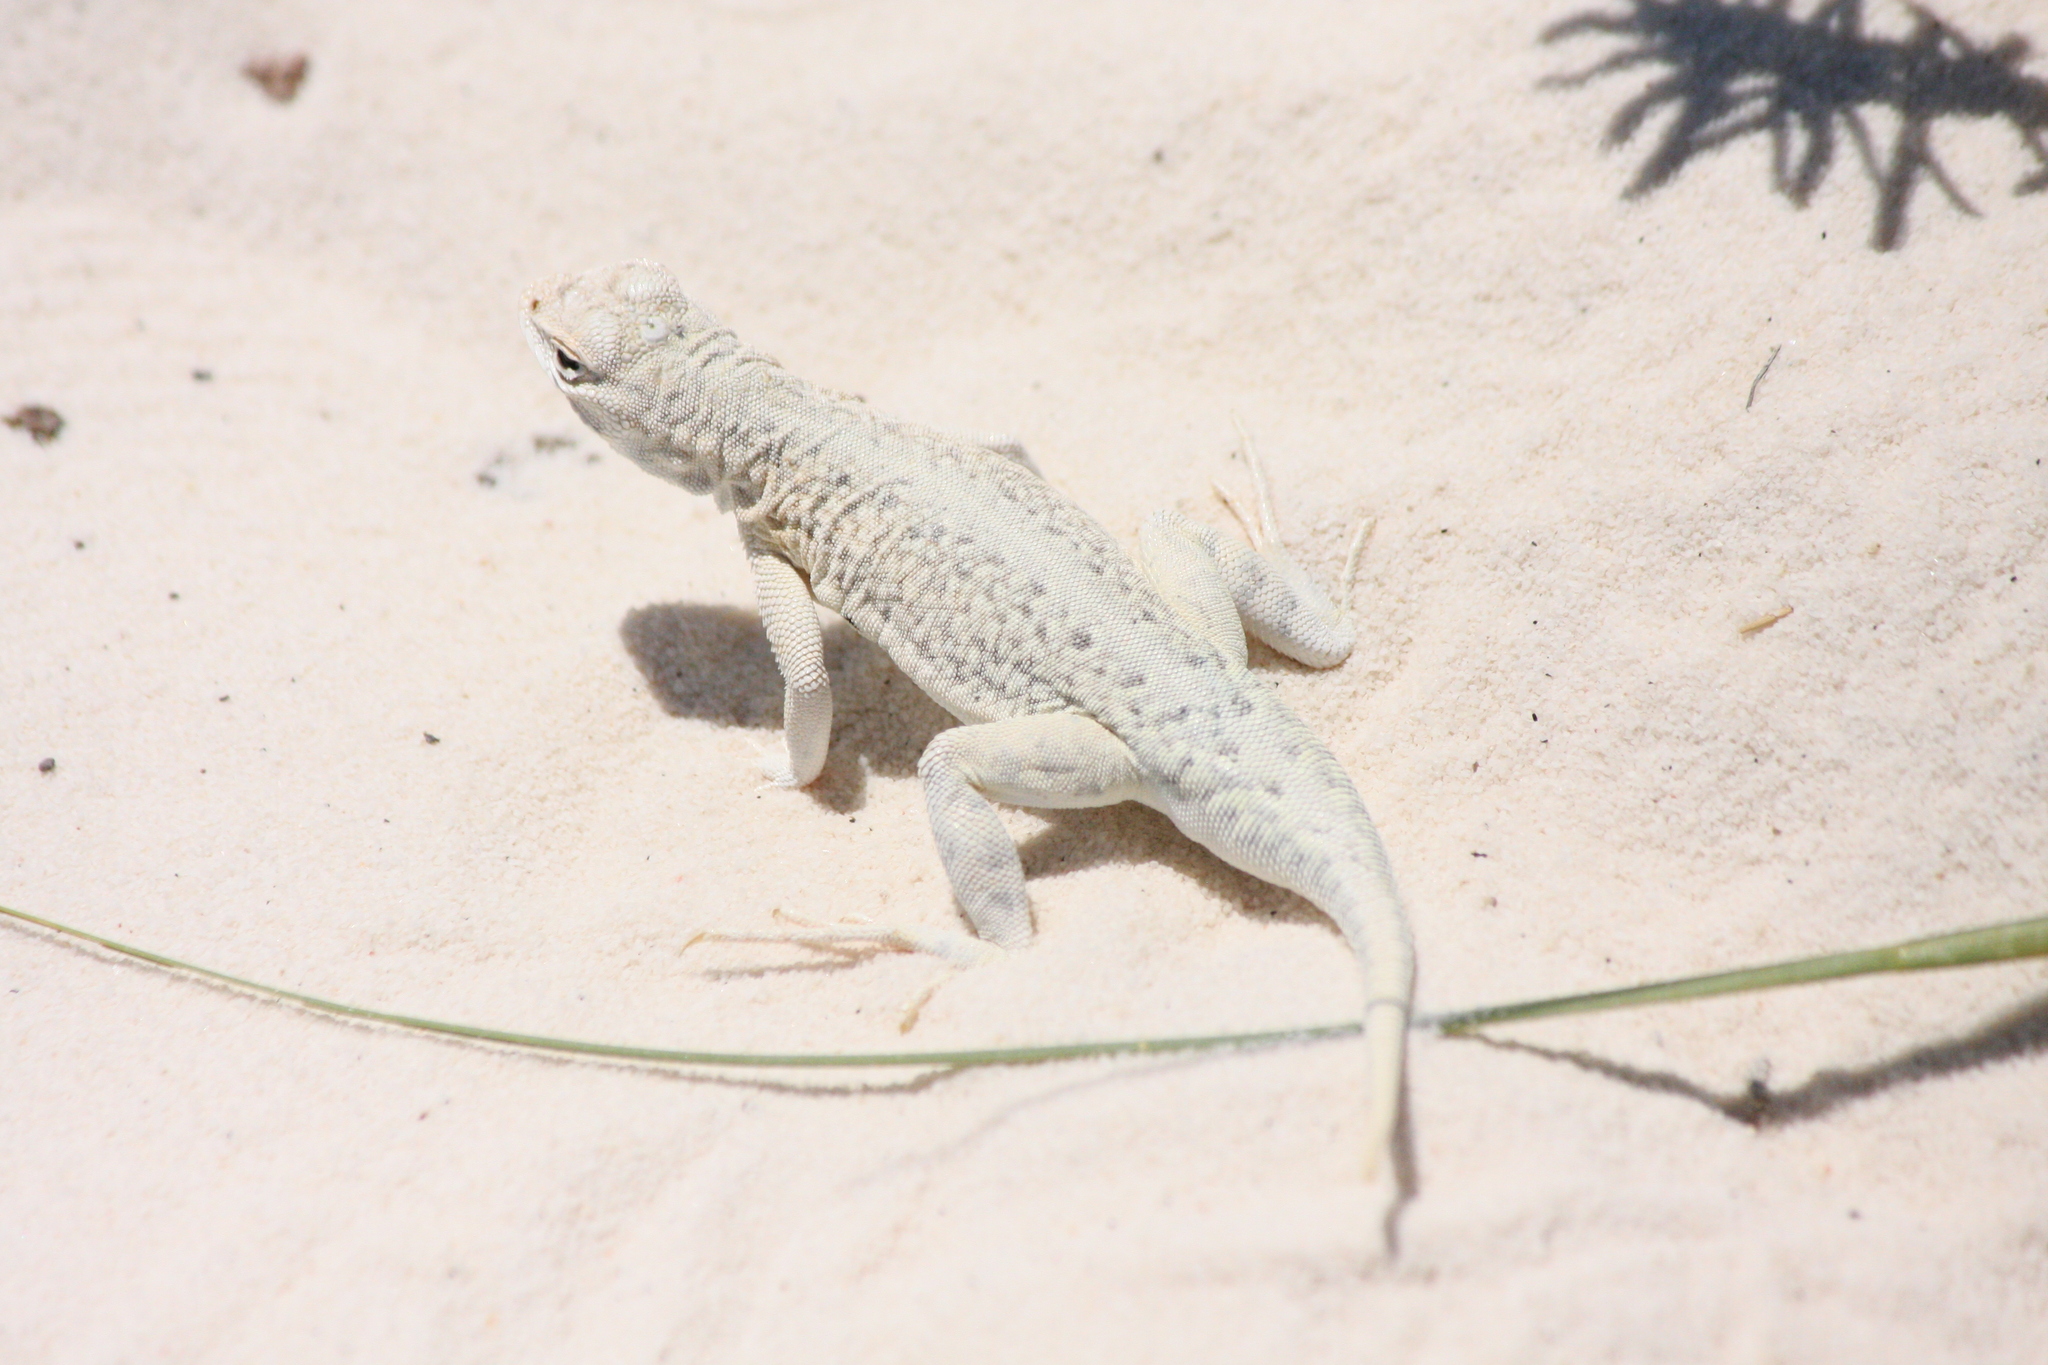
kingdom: Animalia
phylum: Chordata
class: Squamata
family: Phrynosomatidae
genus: Holbrookia
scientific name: Holbrookia maculata
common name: Lesser earless lizard
